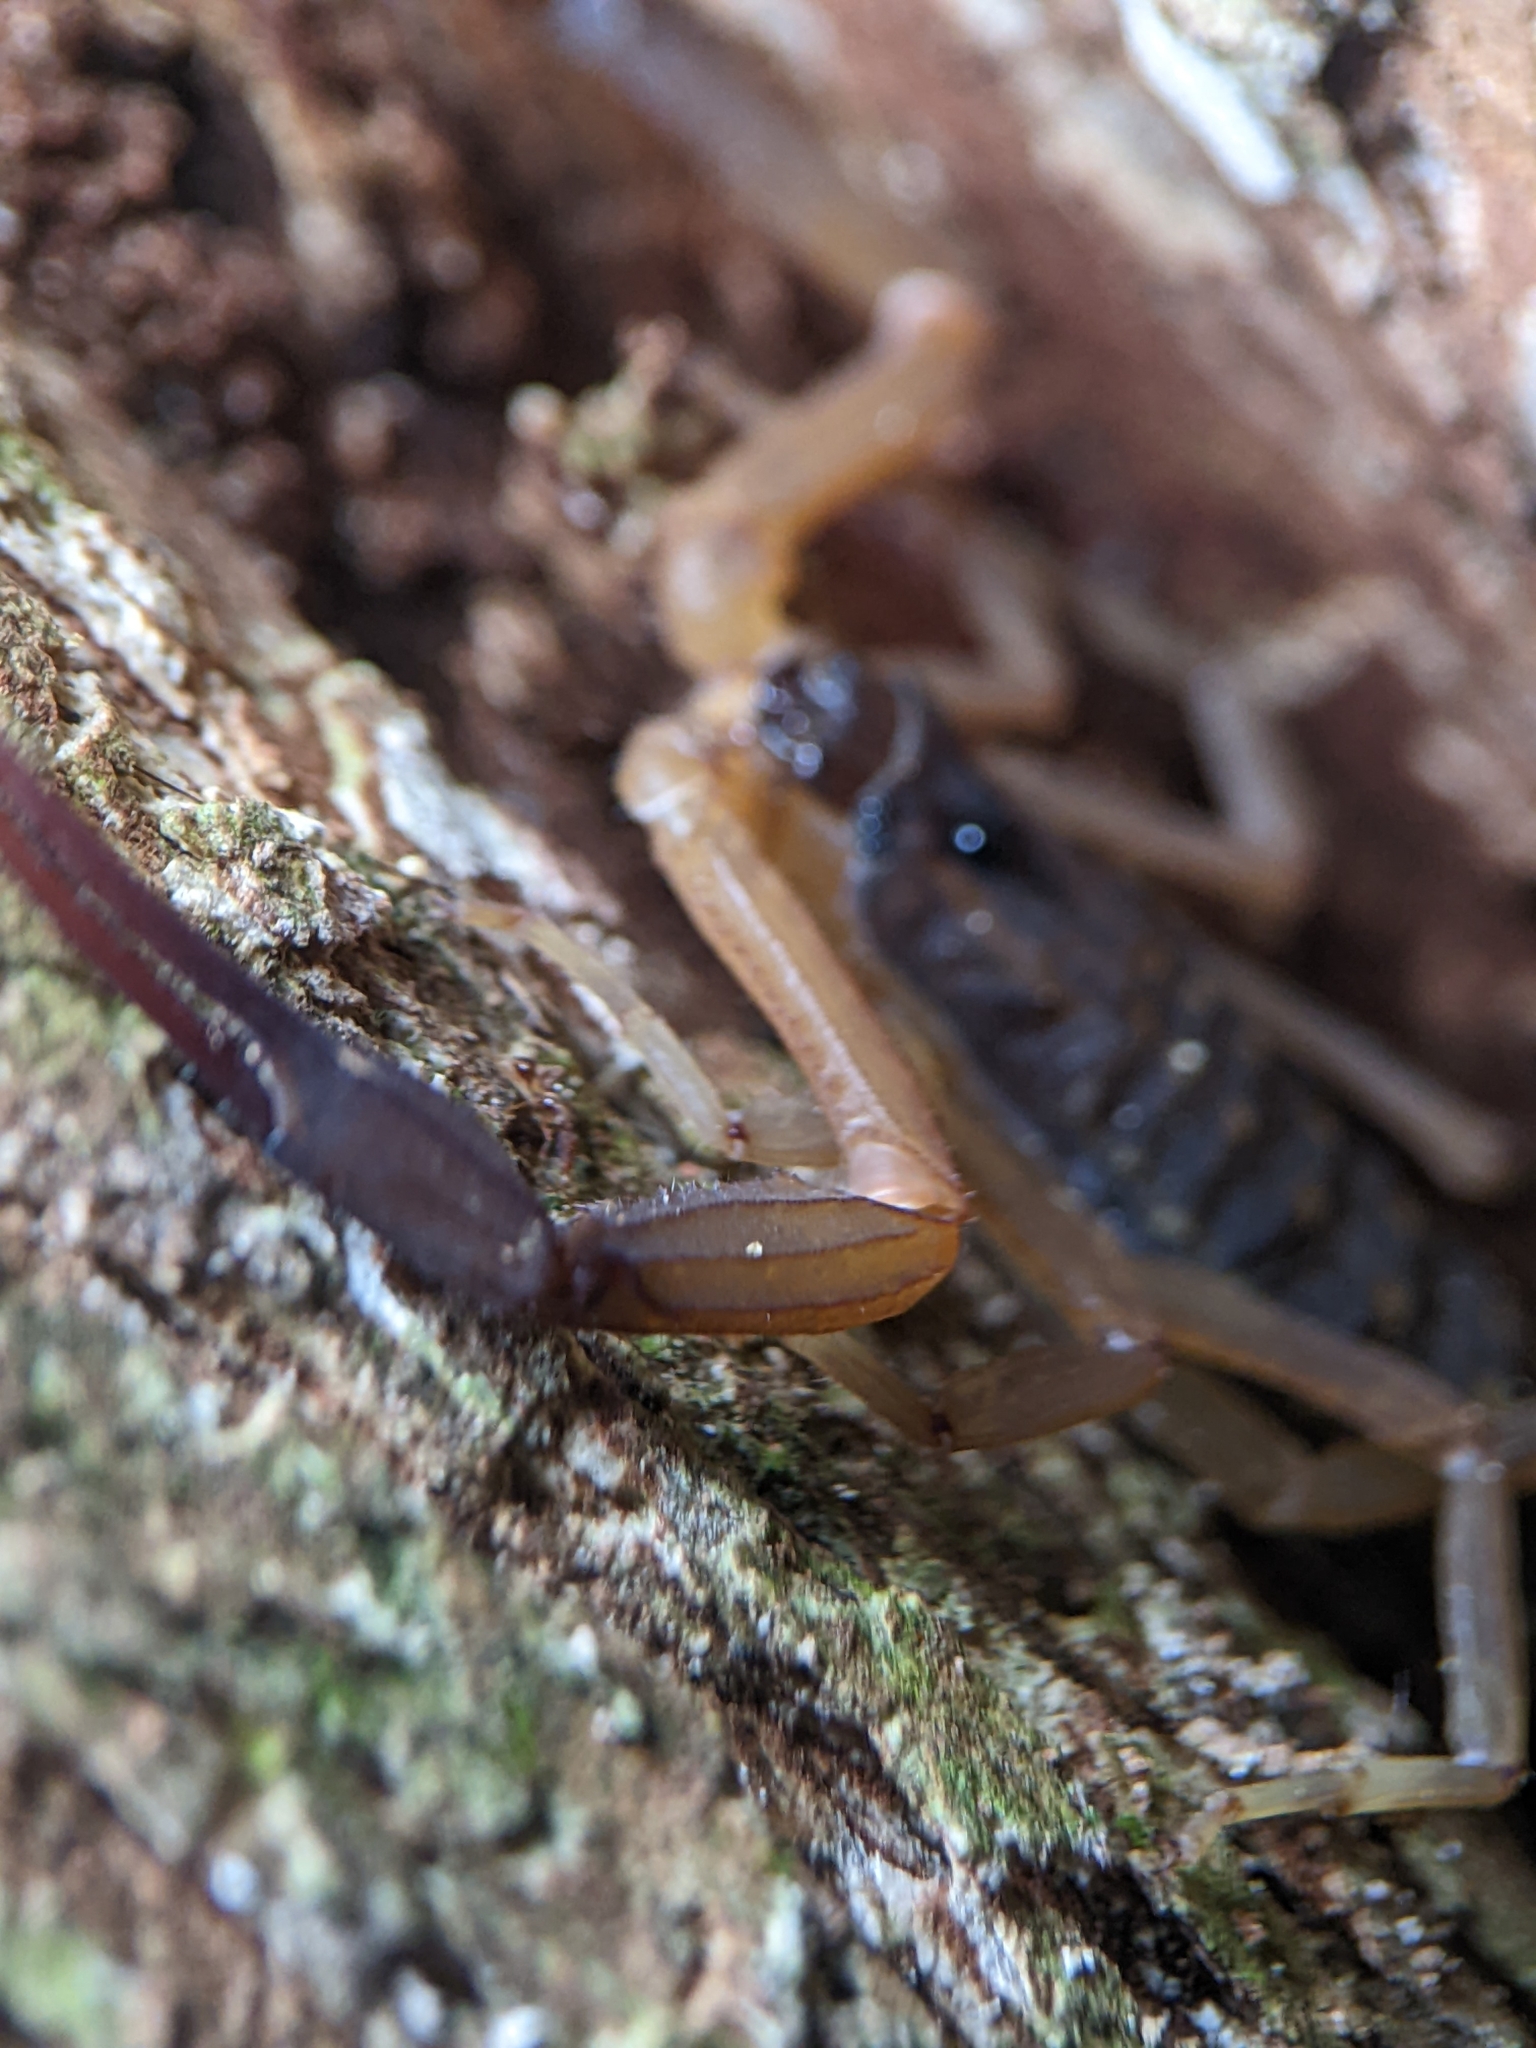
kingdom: Animalia
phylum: Arthropoda
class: Arachnida
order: Scorpiones
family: Buthidae
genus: Lychas
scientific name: Lychas scutilus
